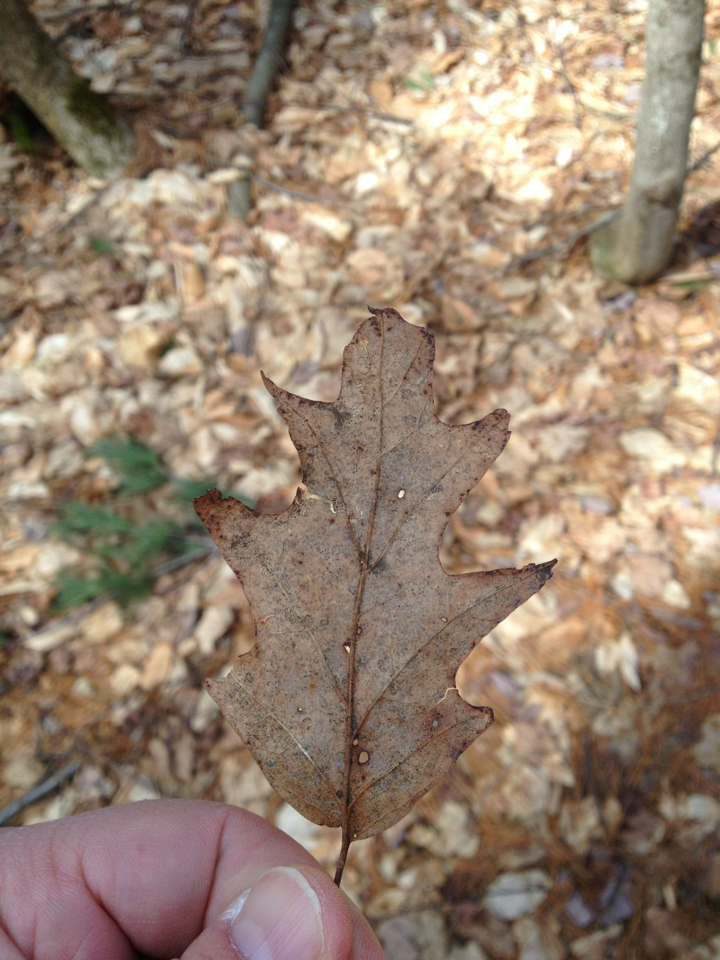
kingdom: Plantae
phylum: Tracheophyta
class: Magnoliopsida
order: Fagales
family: Fagaceae
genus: Quercus
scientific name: Quercus rubra
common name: Red oak
